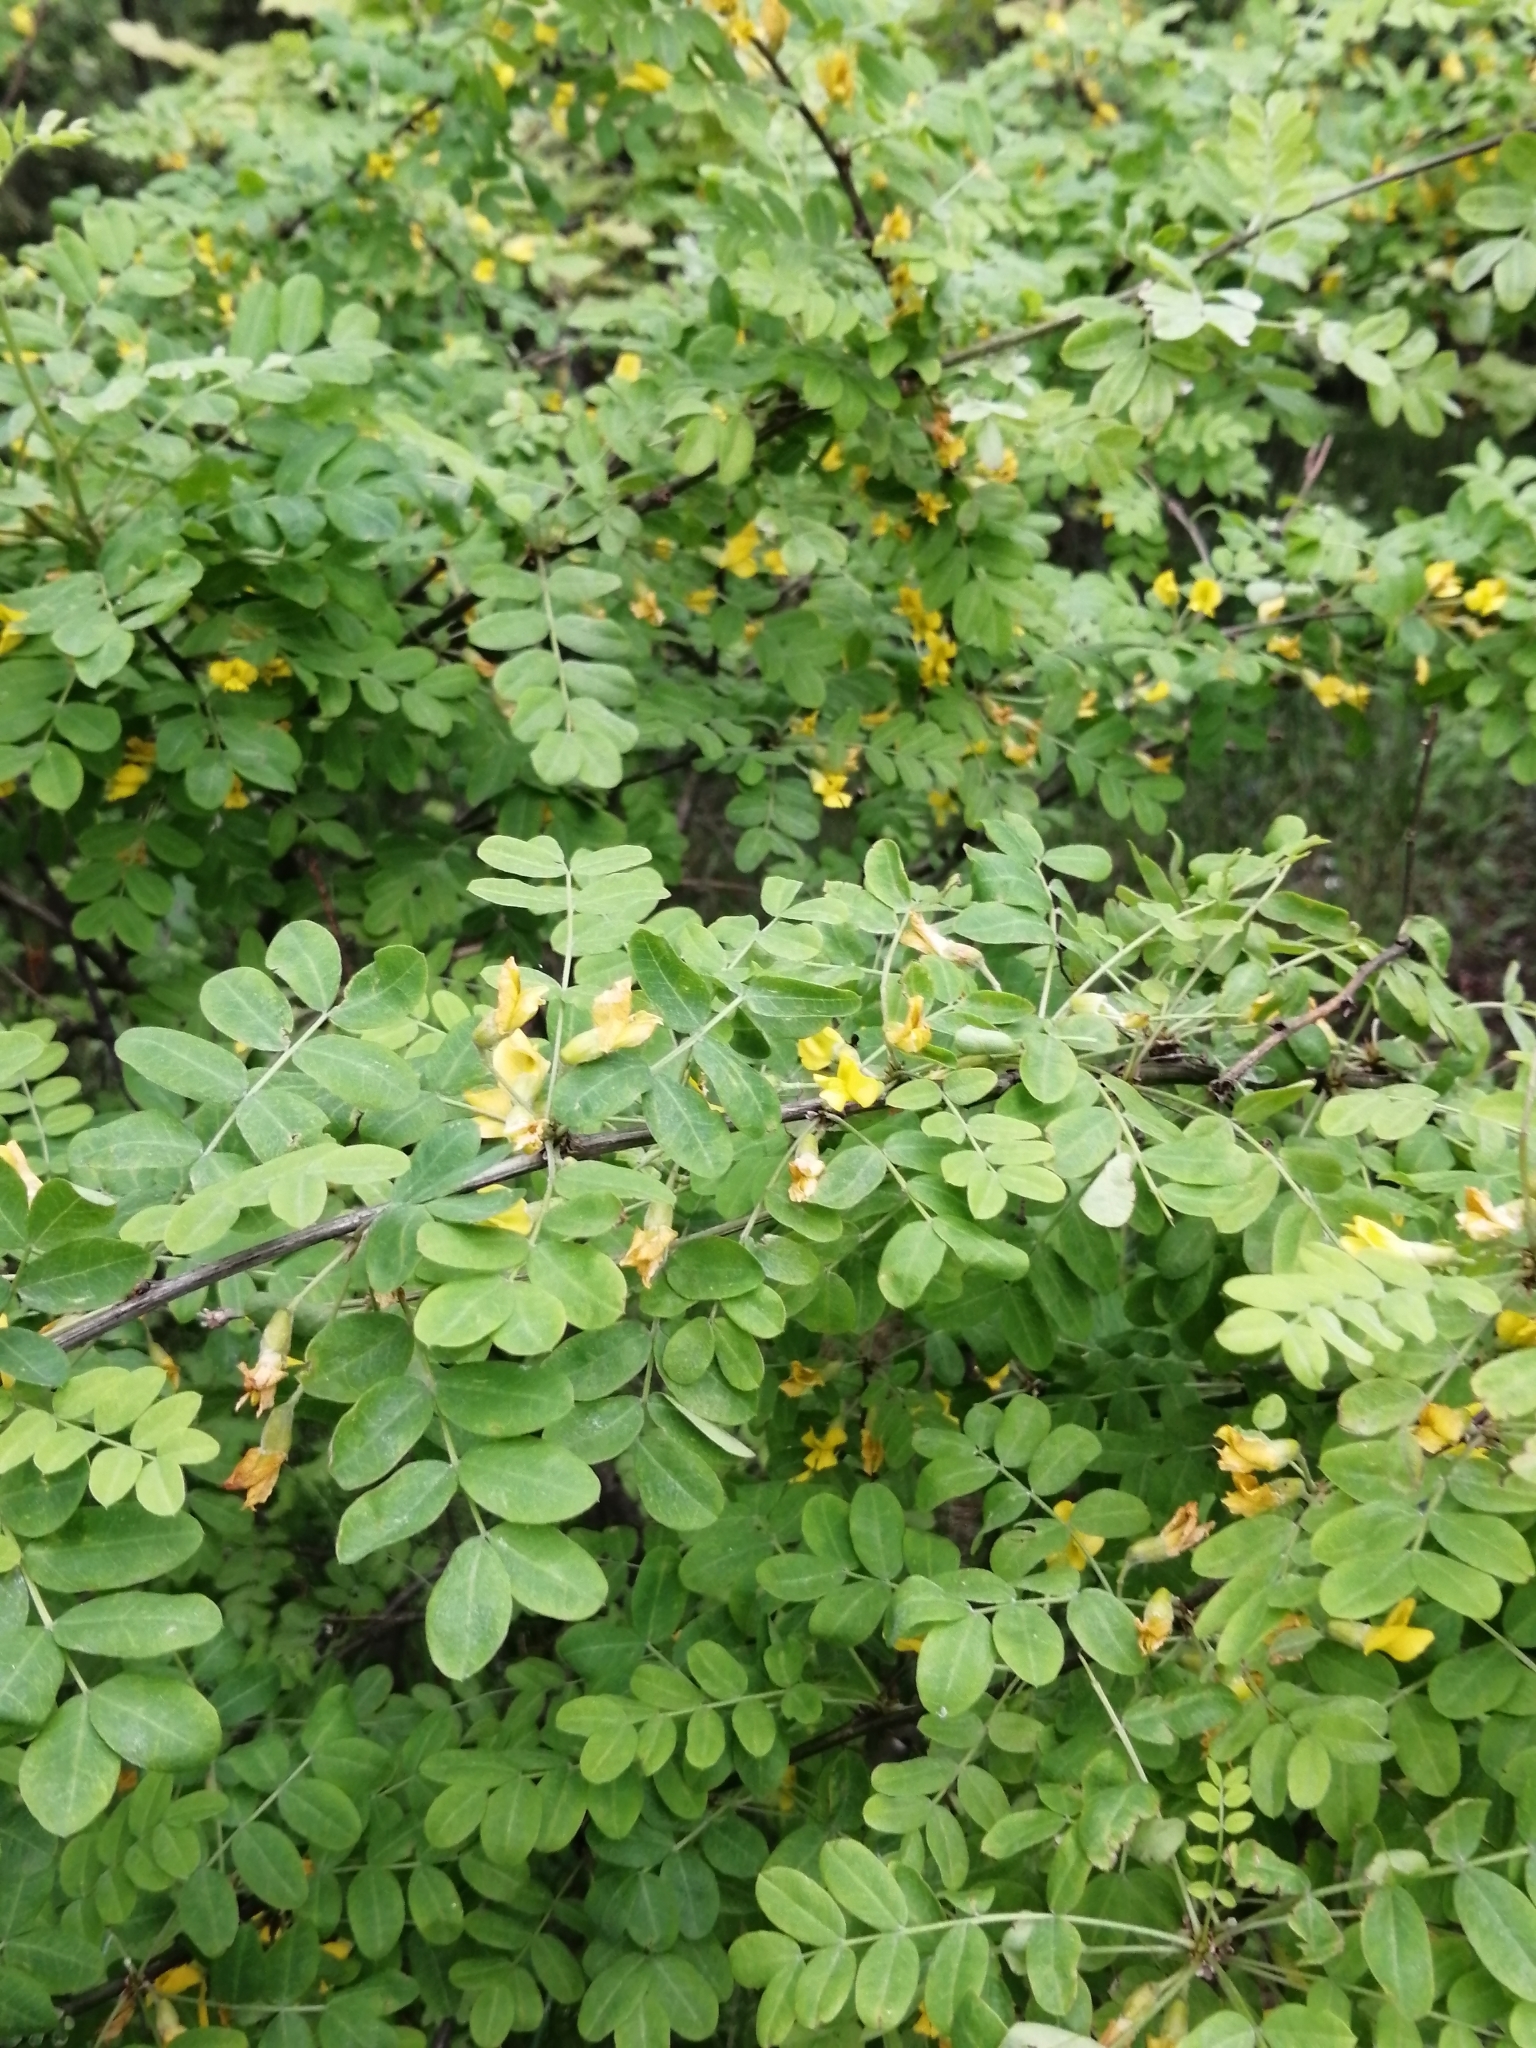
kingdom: Plantae
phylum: Tracheophyta
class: Magnoliopsida
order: Fabales
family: Fabaceae
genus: Caragana
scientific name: Caragana arborescens
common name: Siberian peashrub
